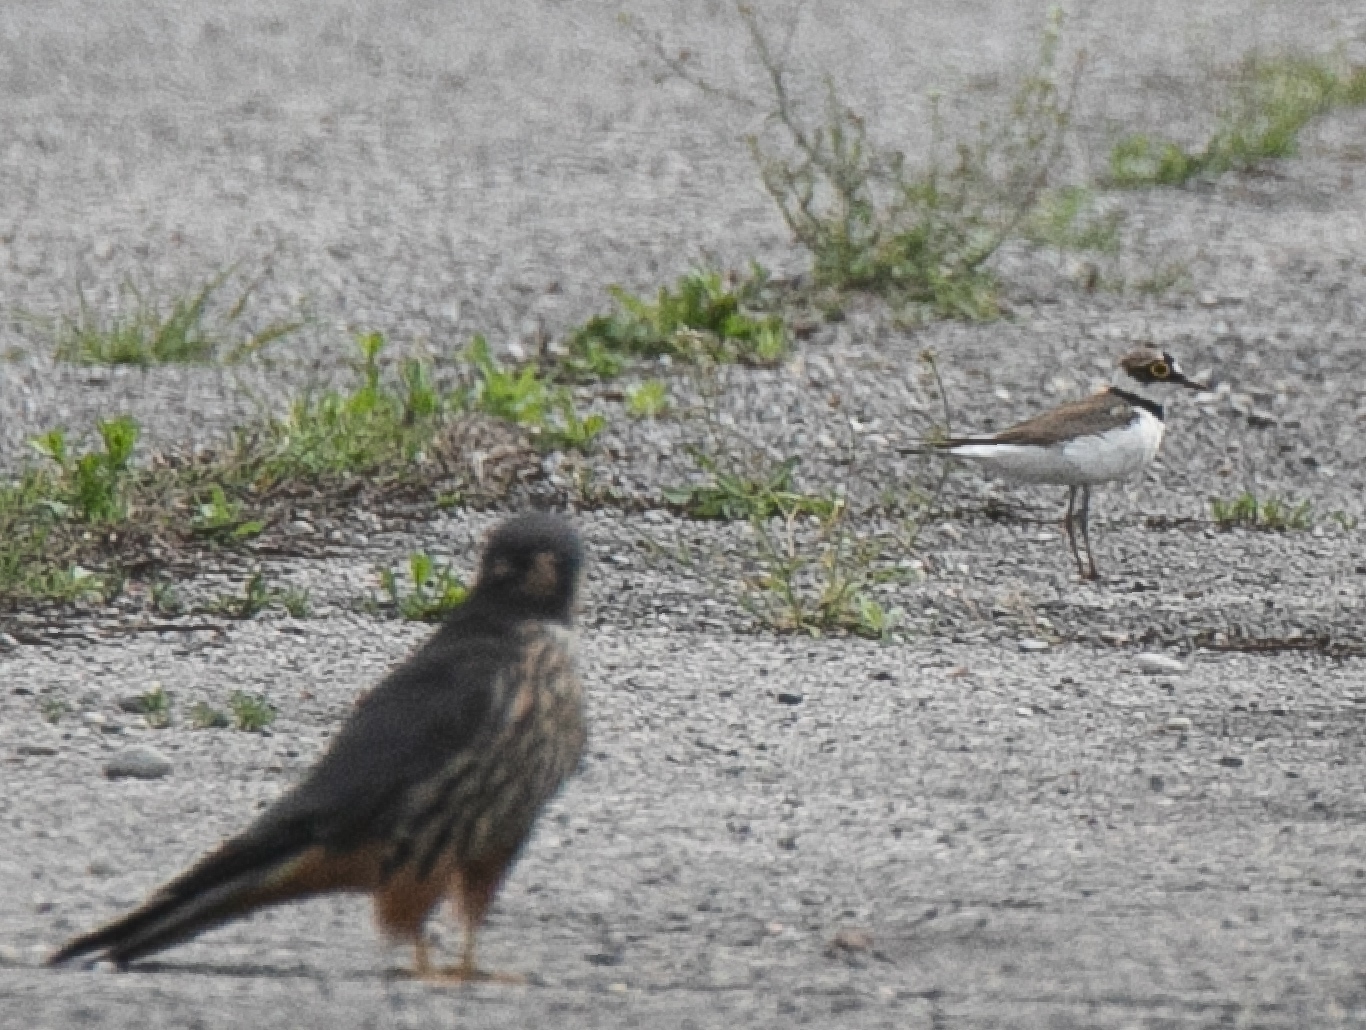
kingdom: Animalia
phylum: Chordata
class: Aves
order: Charadriiformes
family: Charadriidae
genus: Charadrius
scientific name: Charadrius dubius
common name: Little ringed plover
